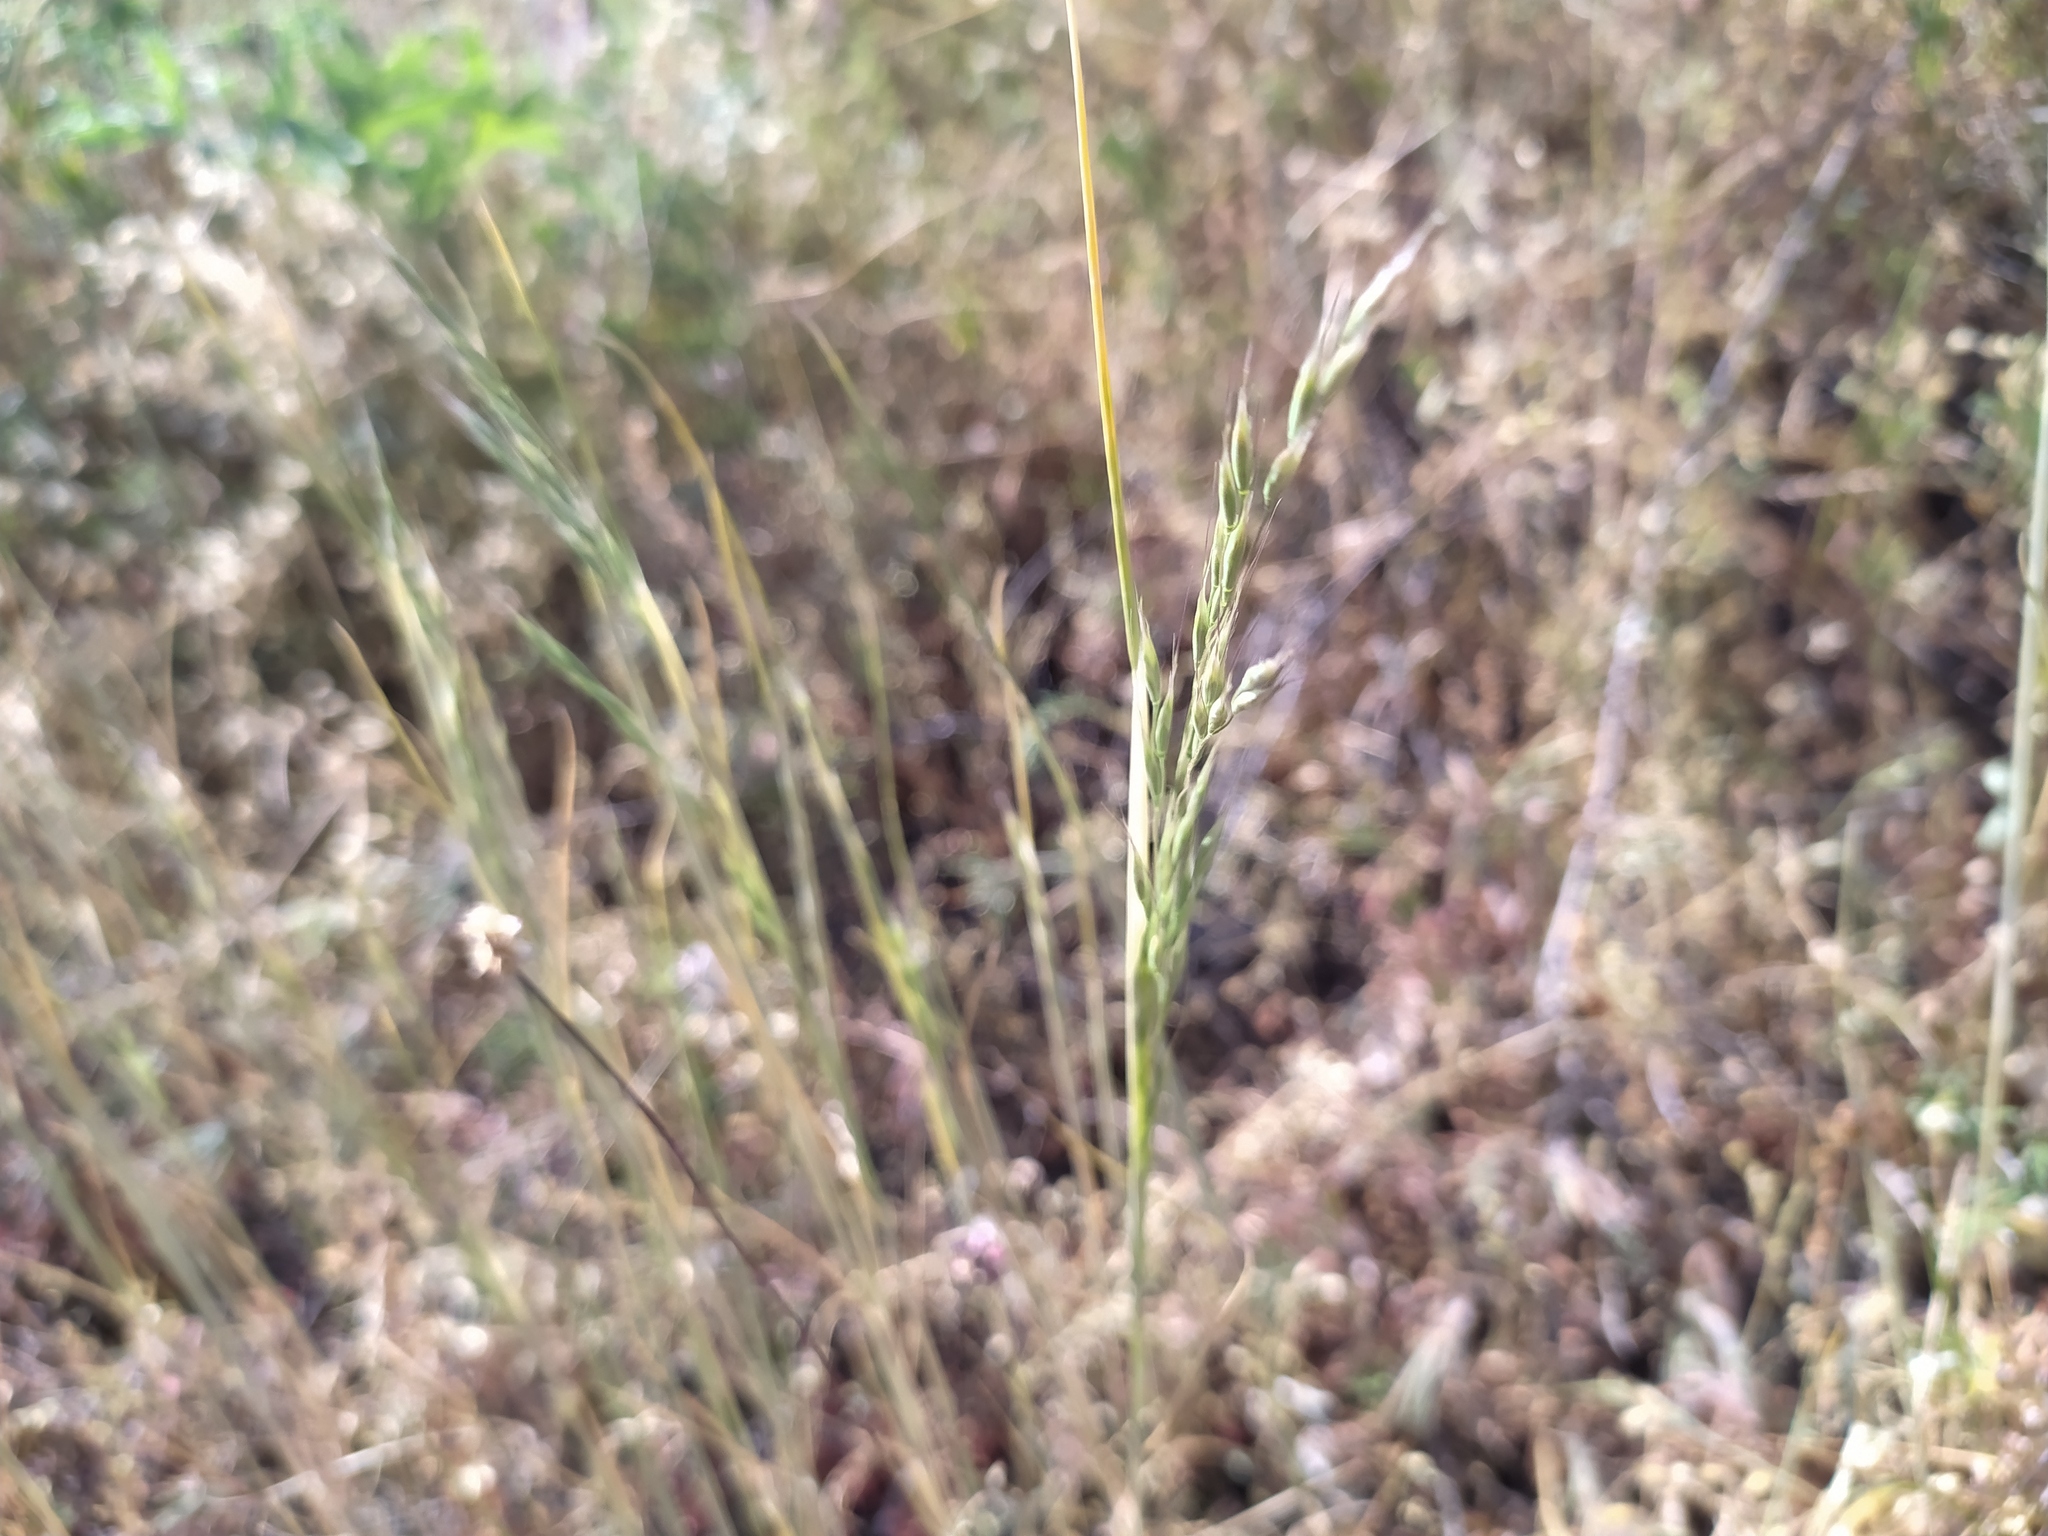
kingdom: Plantae
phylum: Tracheophyta
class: Liliopsida
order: Poales
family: Poaceae
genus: Ventenata
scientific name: Ventenata dubia
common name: North africa grass
